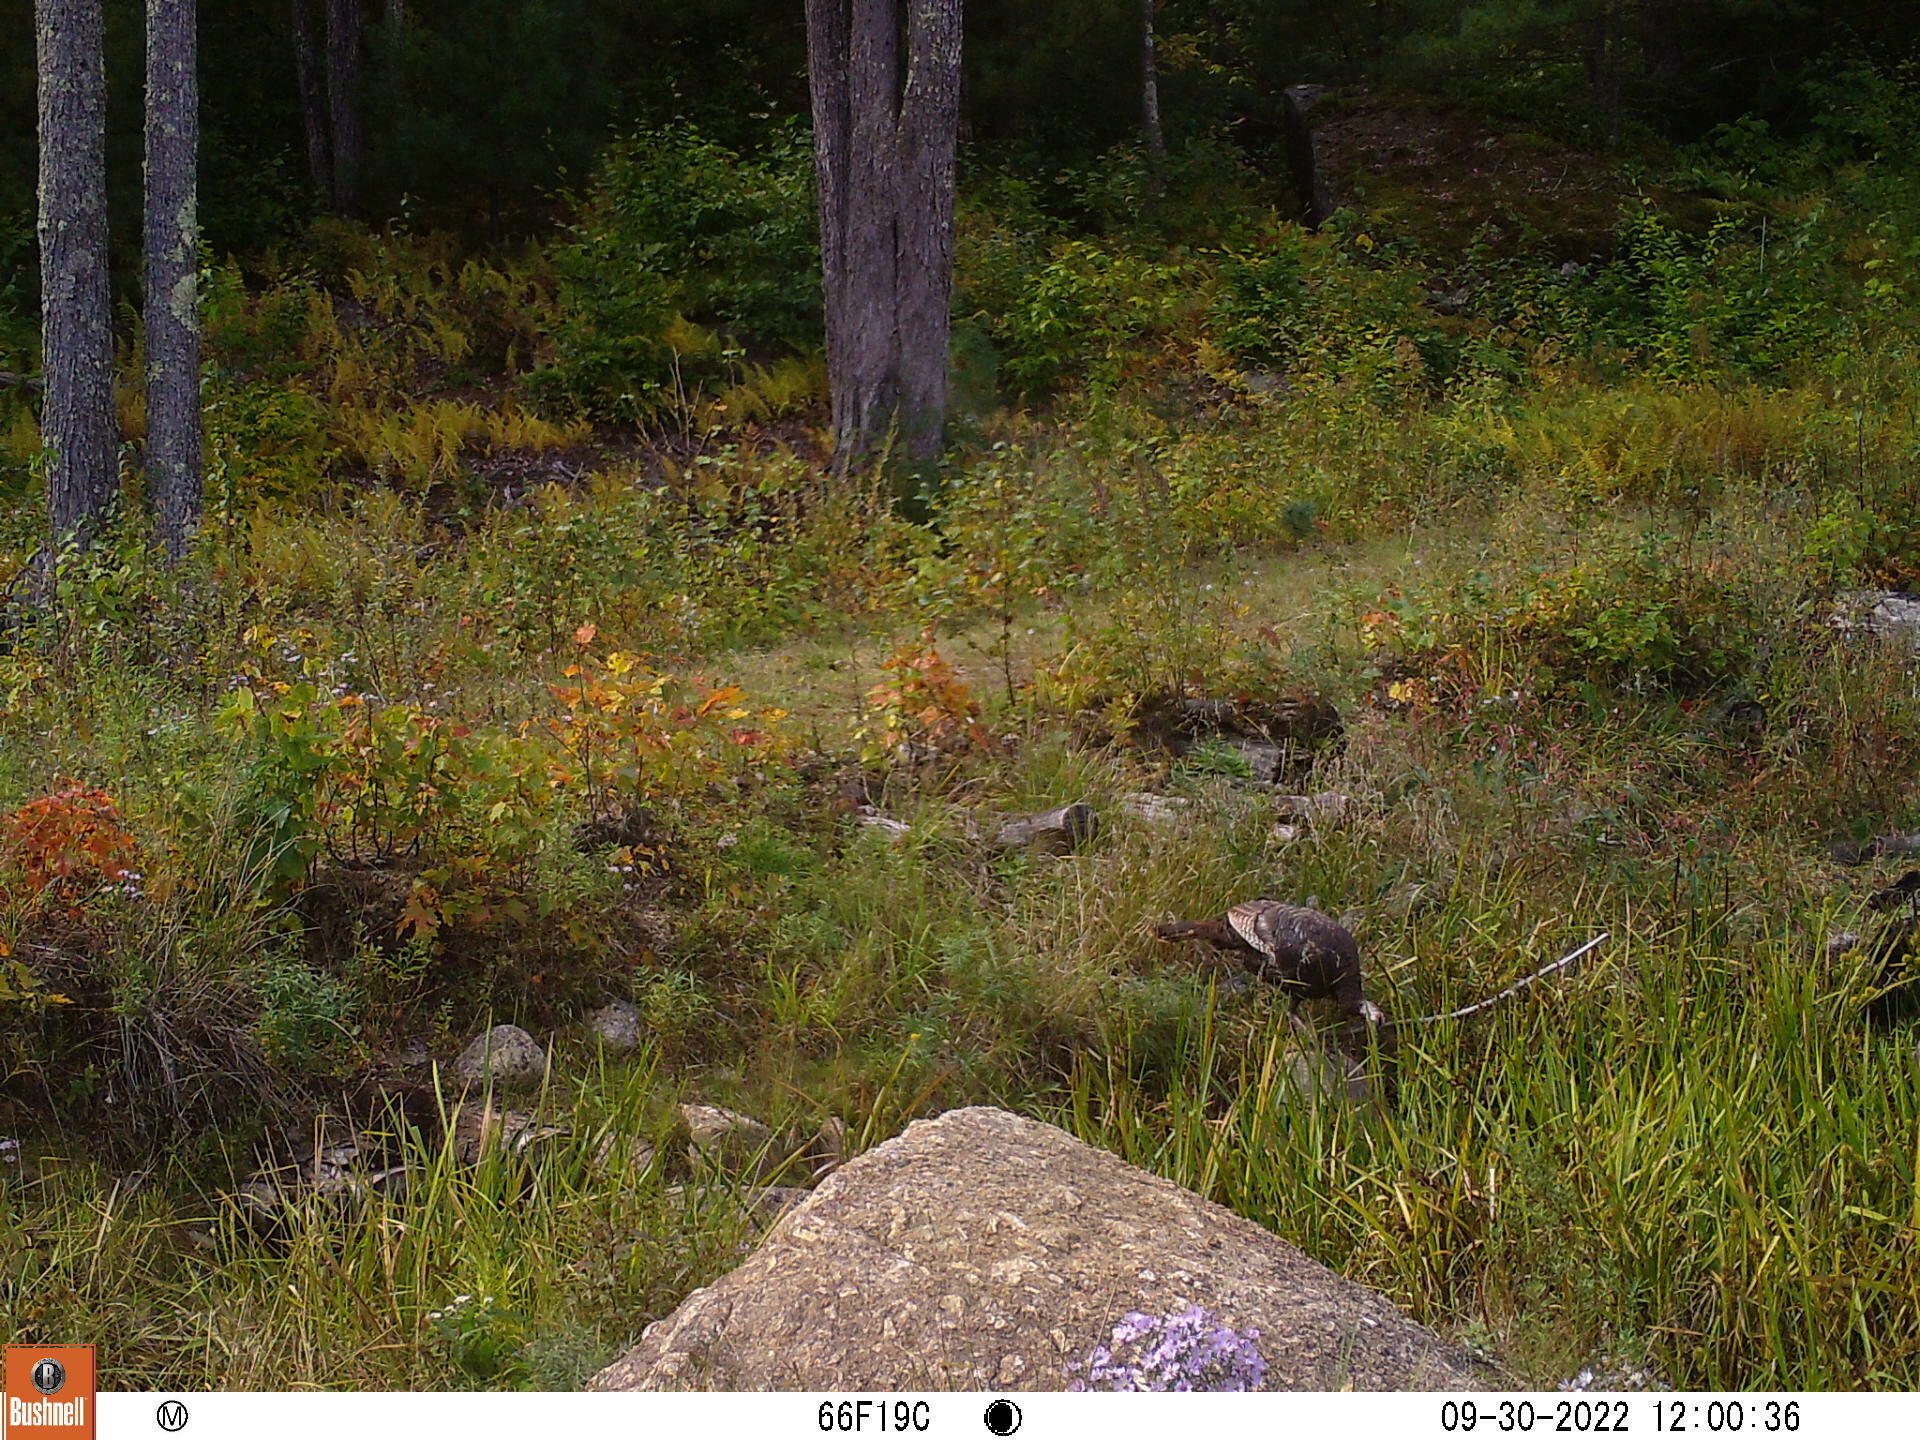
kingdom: Animalia
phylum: Chordata
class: Aves
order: Galliformes
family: Phasianidae
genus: Meleagris
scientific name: Meleagris gallopavo
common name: Wild turkey
